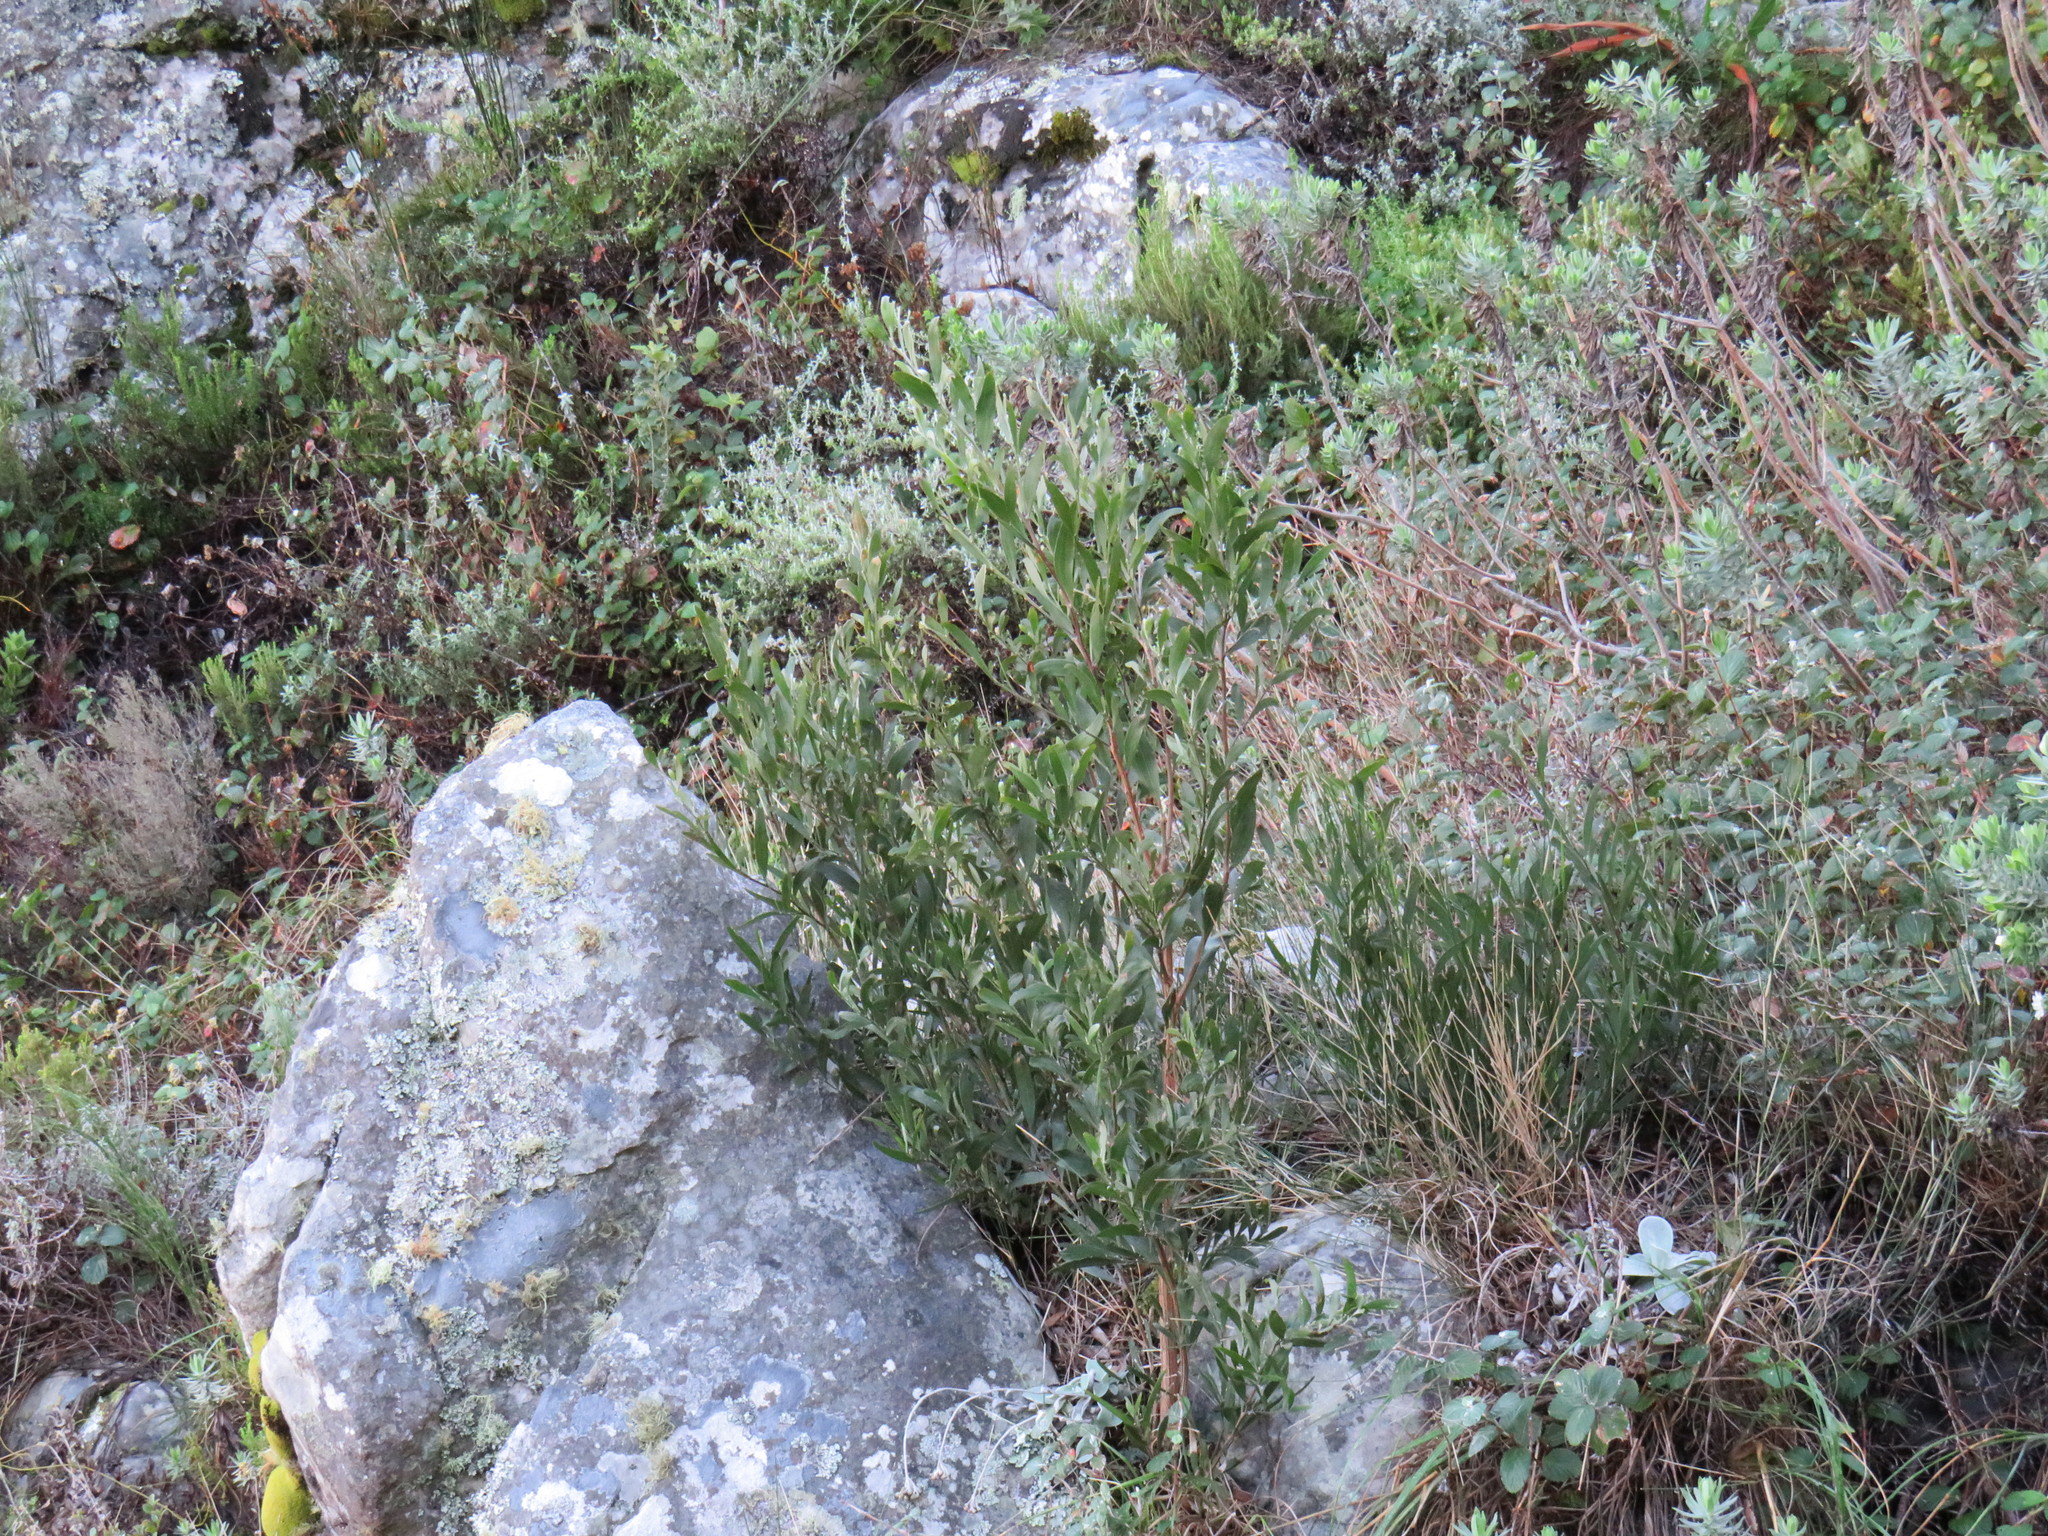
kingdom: Plantae
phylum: Tracheophyta
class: Magnoliopsida
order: Fabales
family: Fabaceae
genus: Acacia
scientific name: Acacia melanoxylon
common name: Blackwood
